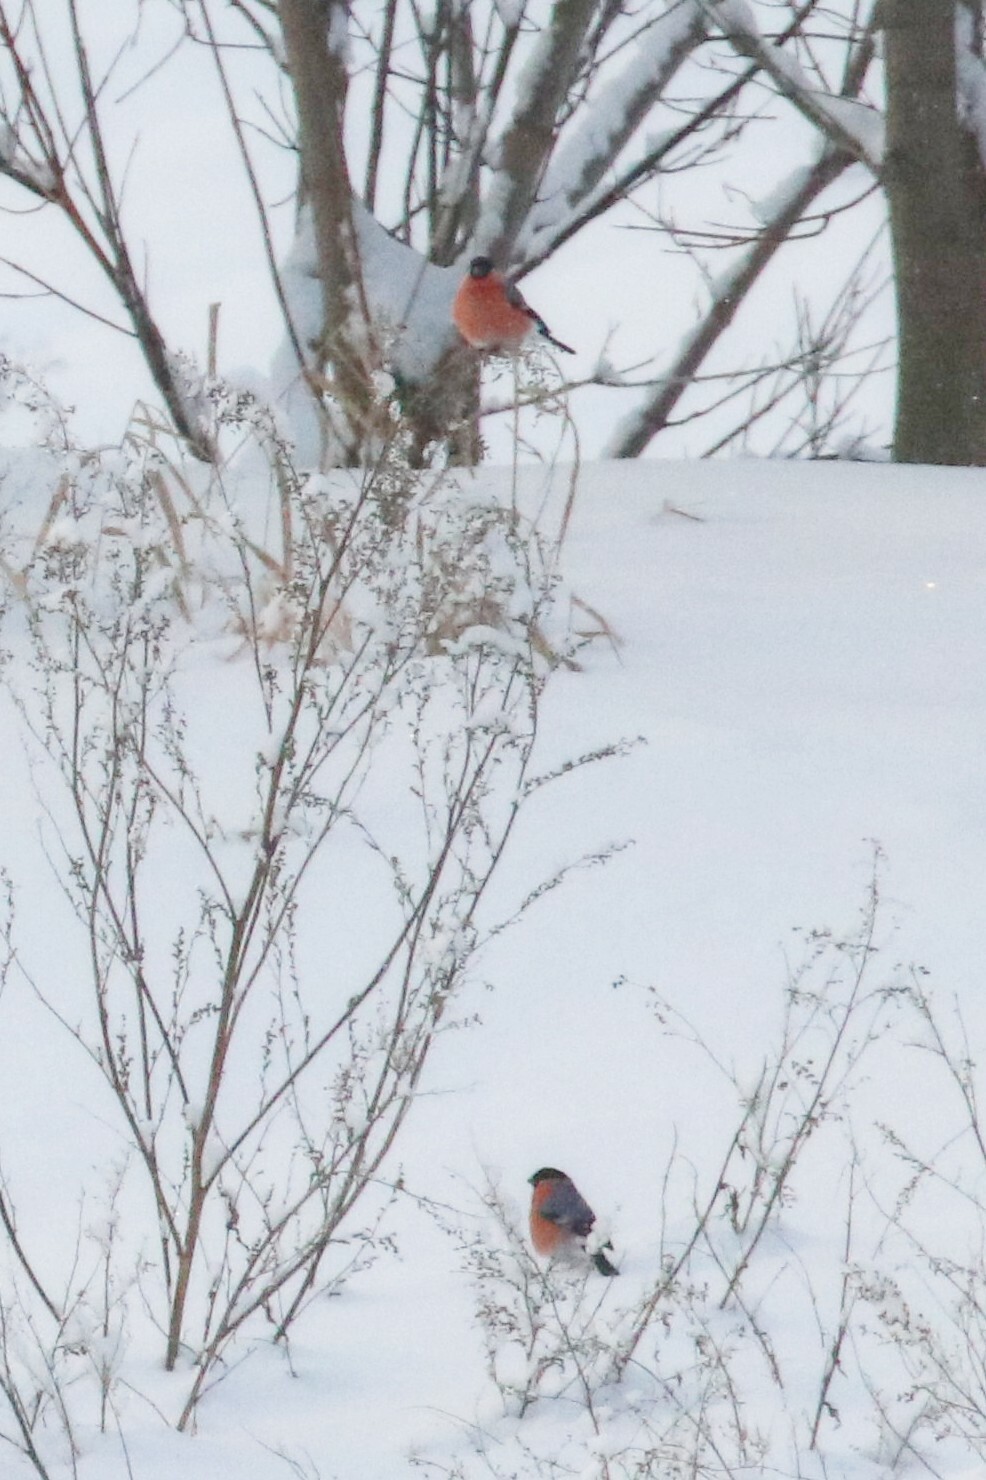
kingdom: Animalia
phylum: Chordata
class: Aves
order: Passeriformes
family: Fringillidae
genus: Pyrrhula
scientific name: Pyrrhula pyrrhula
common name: Eurasian bullfinch
